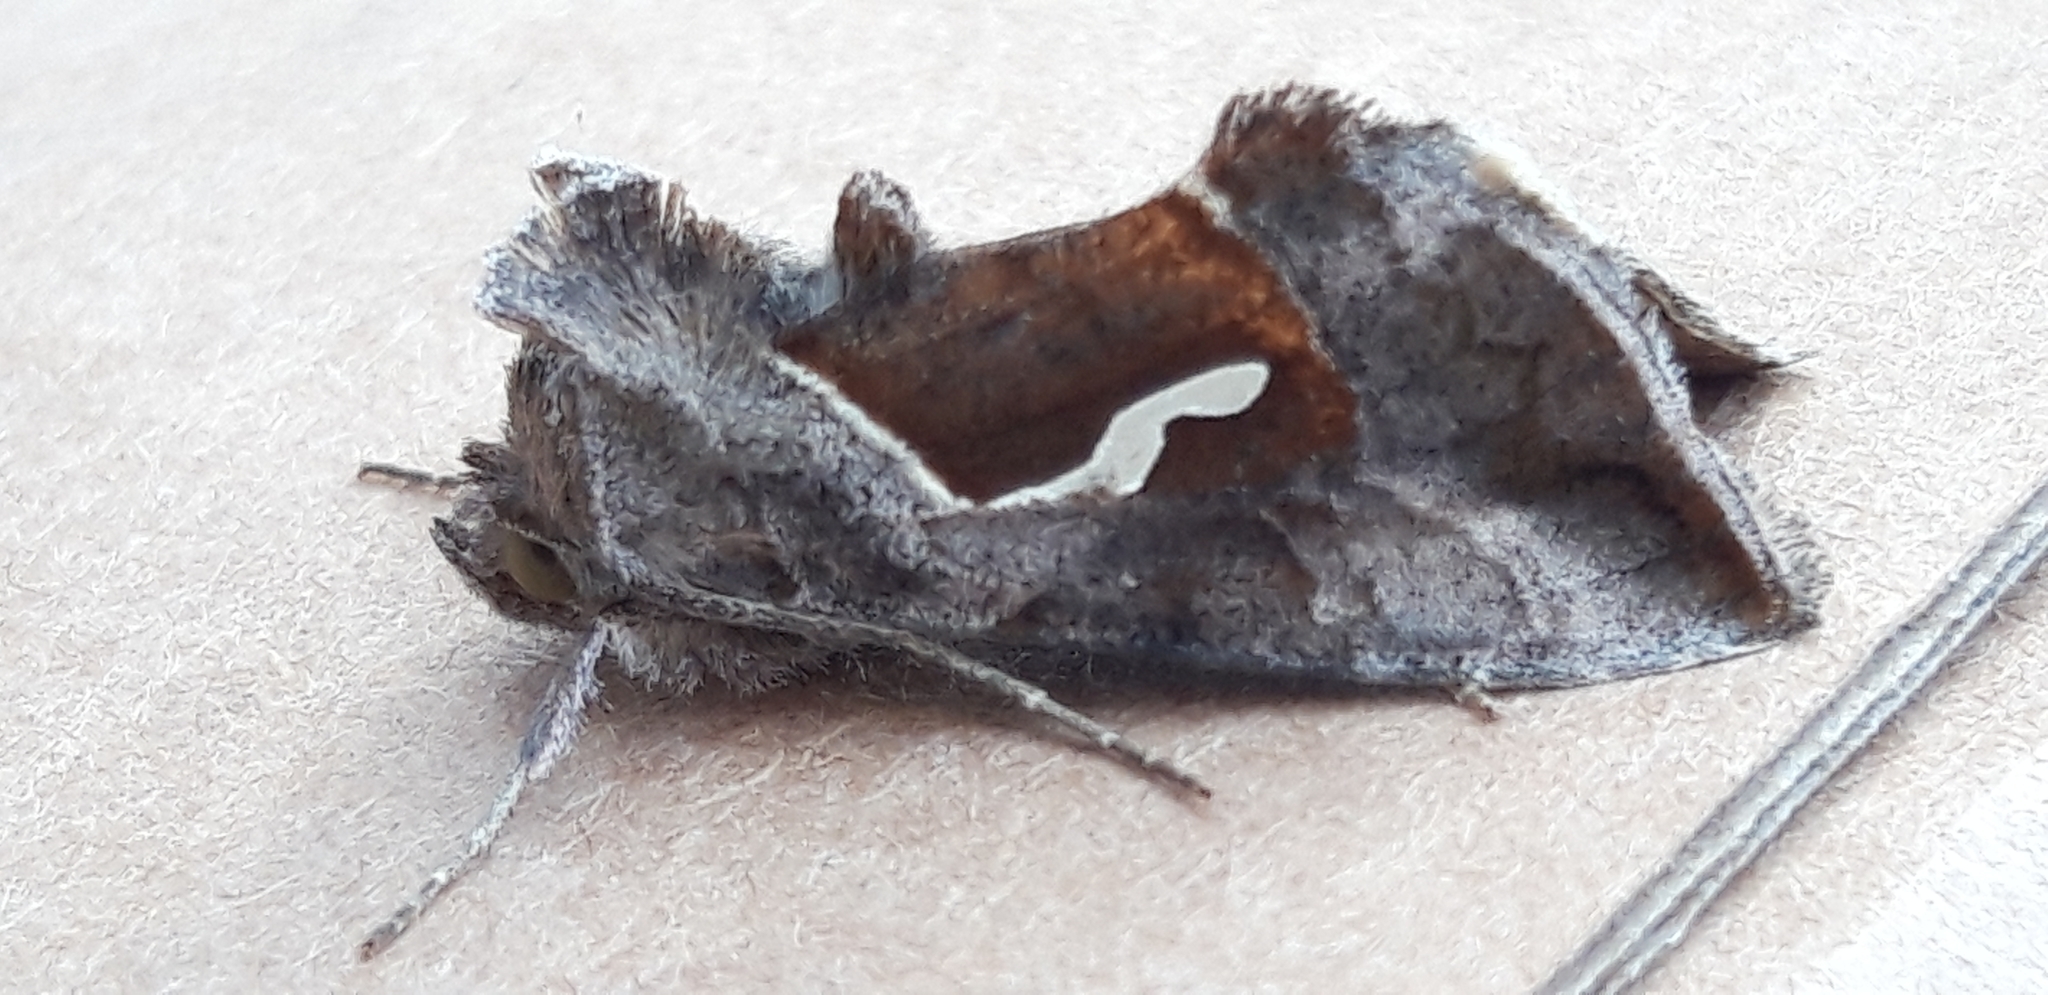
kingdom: Animalia
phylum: Arthropoda
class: Insecta
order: Lepidoptera
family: Noctuidae
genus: Macdunnoughia
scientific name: Macdunnoughia confusa
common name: Dewick's plusia
